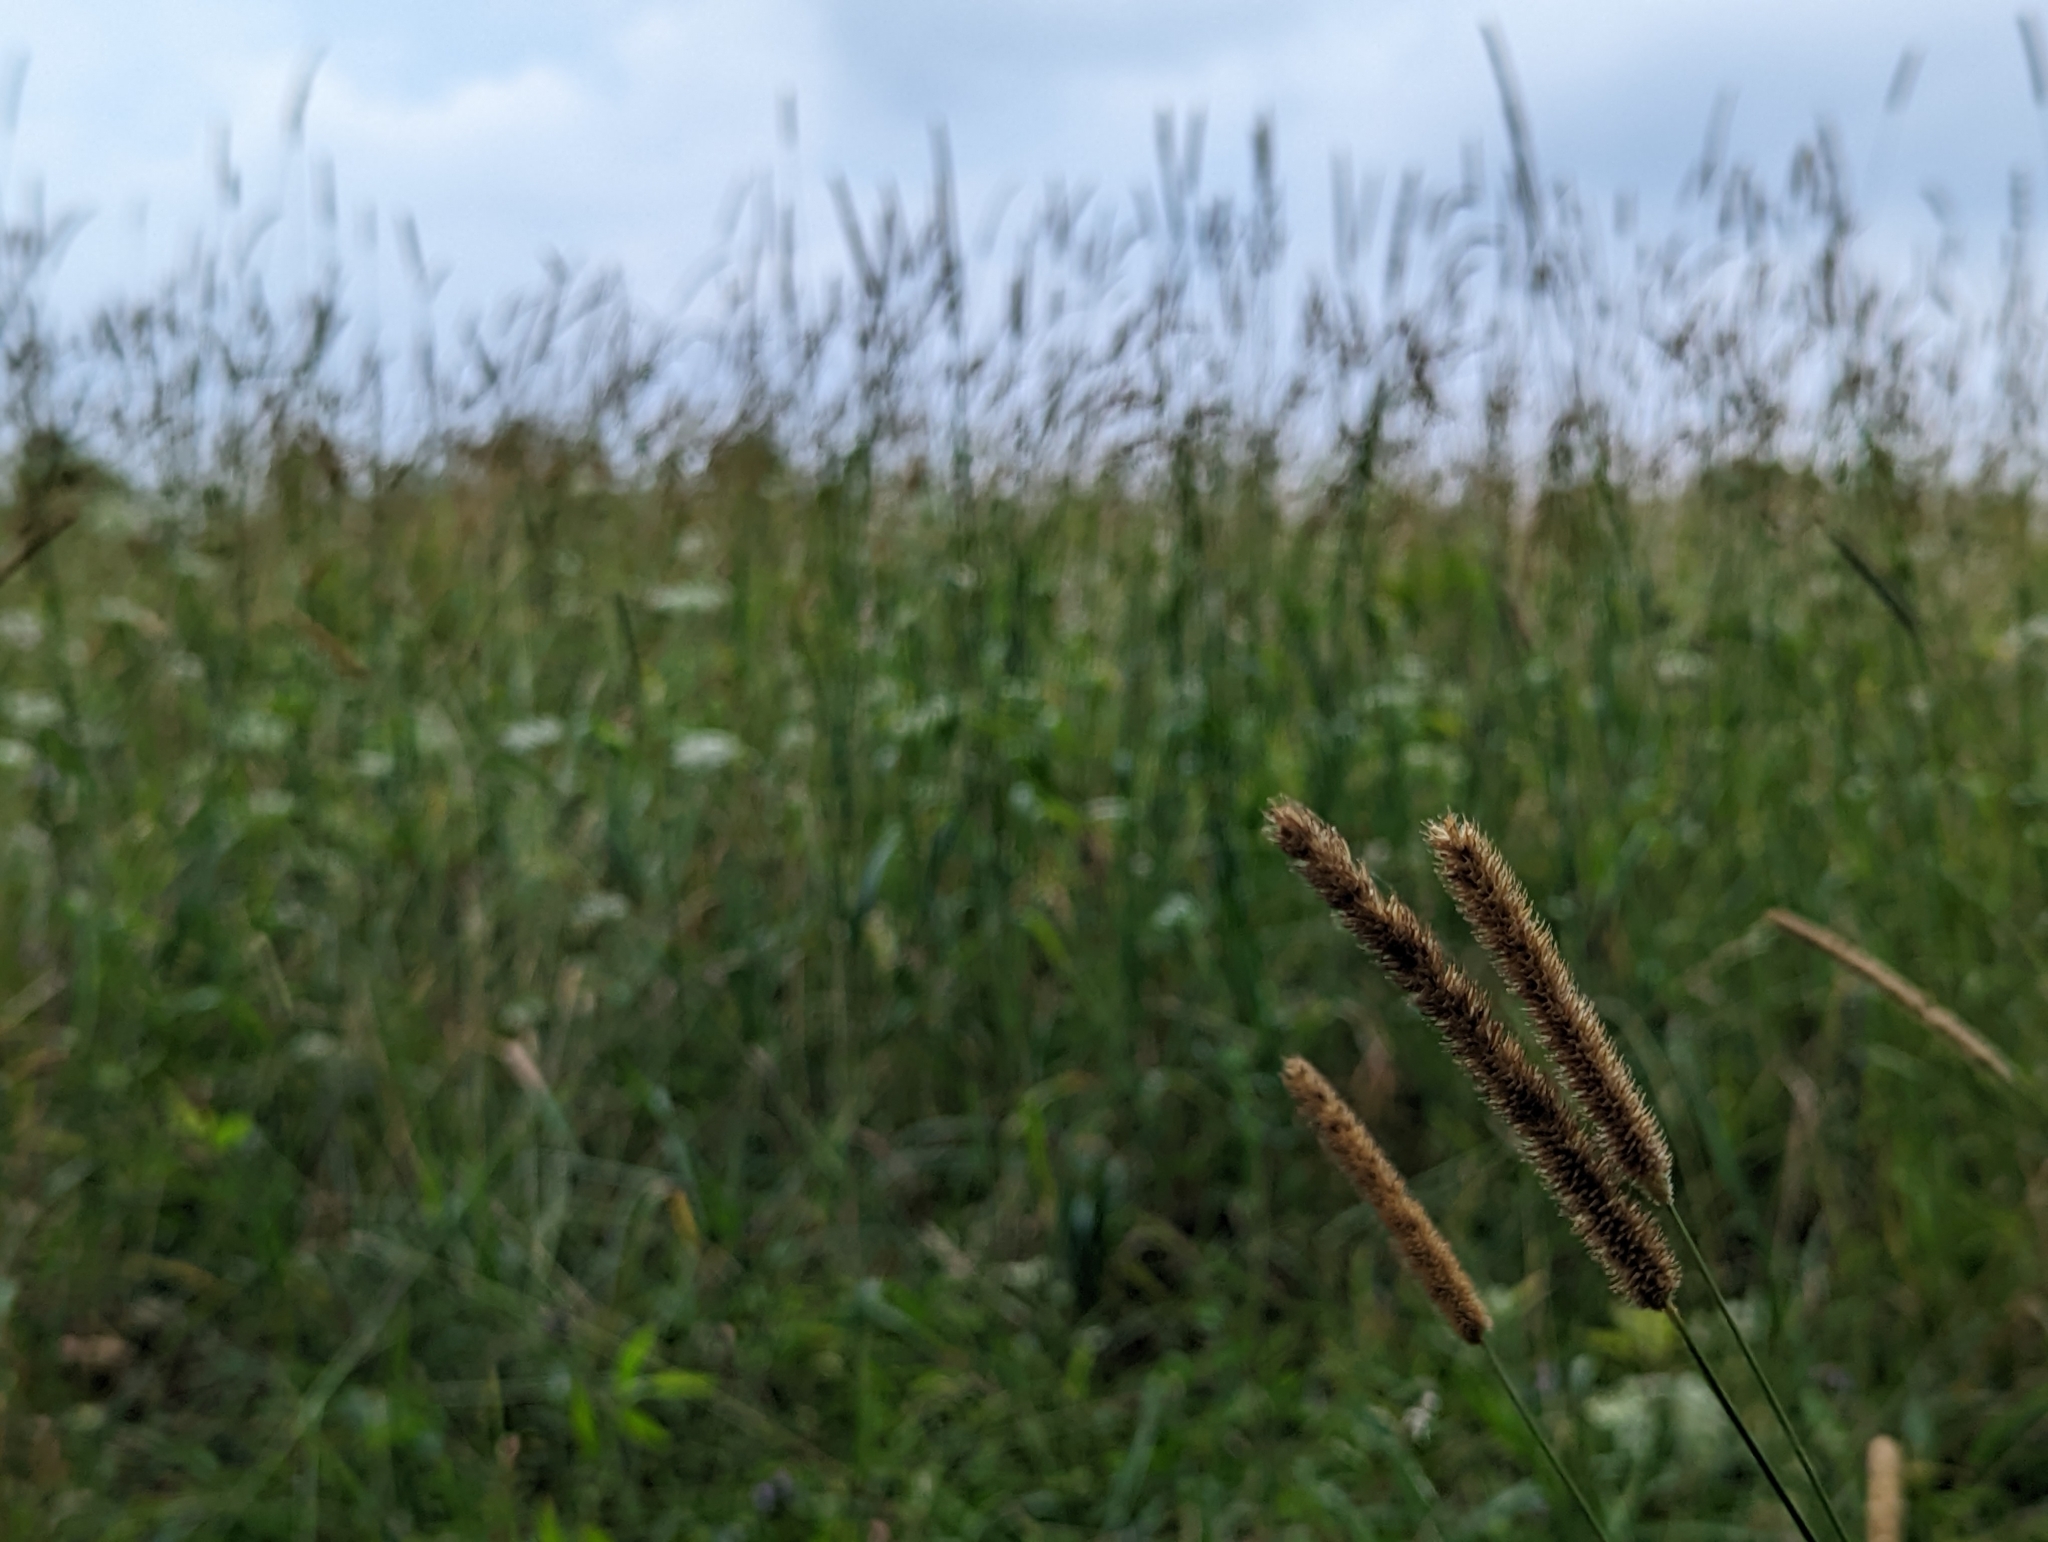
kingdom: Plantae
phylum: Tracheophyta
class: Liliopsida
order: Poales
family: Poaceae
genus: Phleum
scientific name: Phleum pratense
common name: Timothy grass
